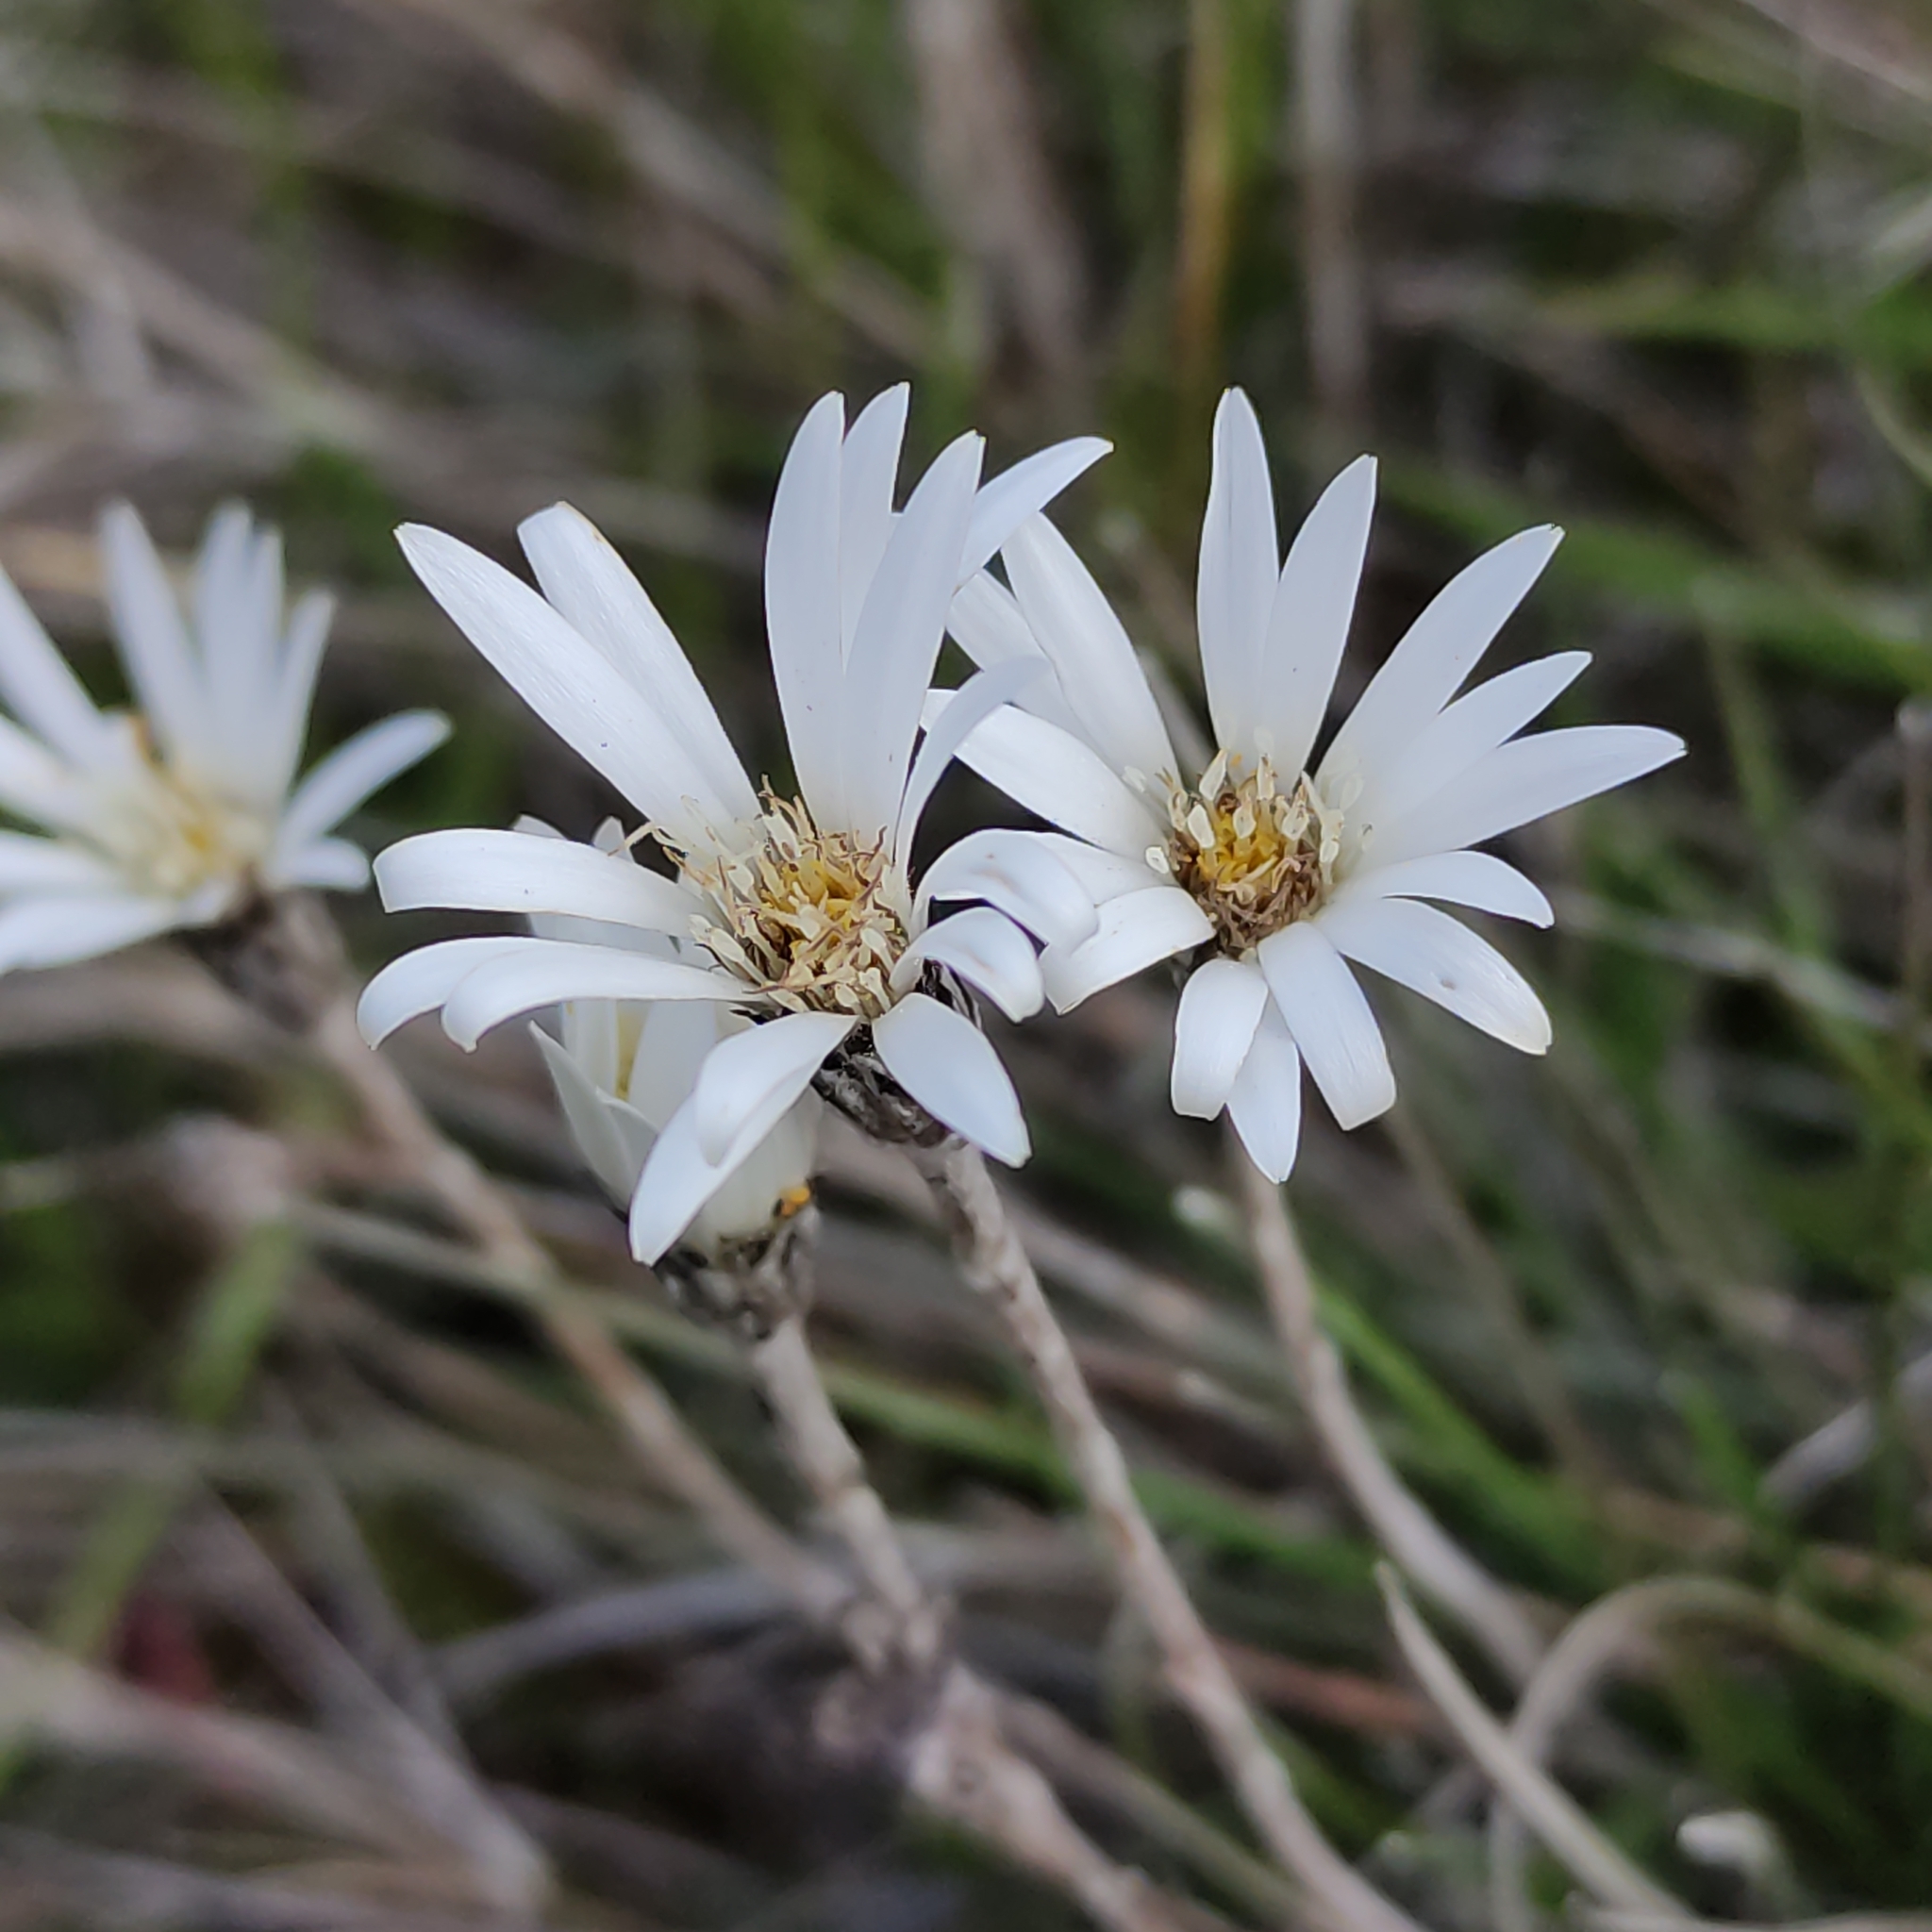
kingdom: Plantae
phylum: Tracheophyta
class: Magnoliopsida
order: Asterales
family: Asteraceae
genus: Celmisia
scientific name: Celmisia gracilenta
